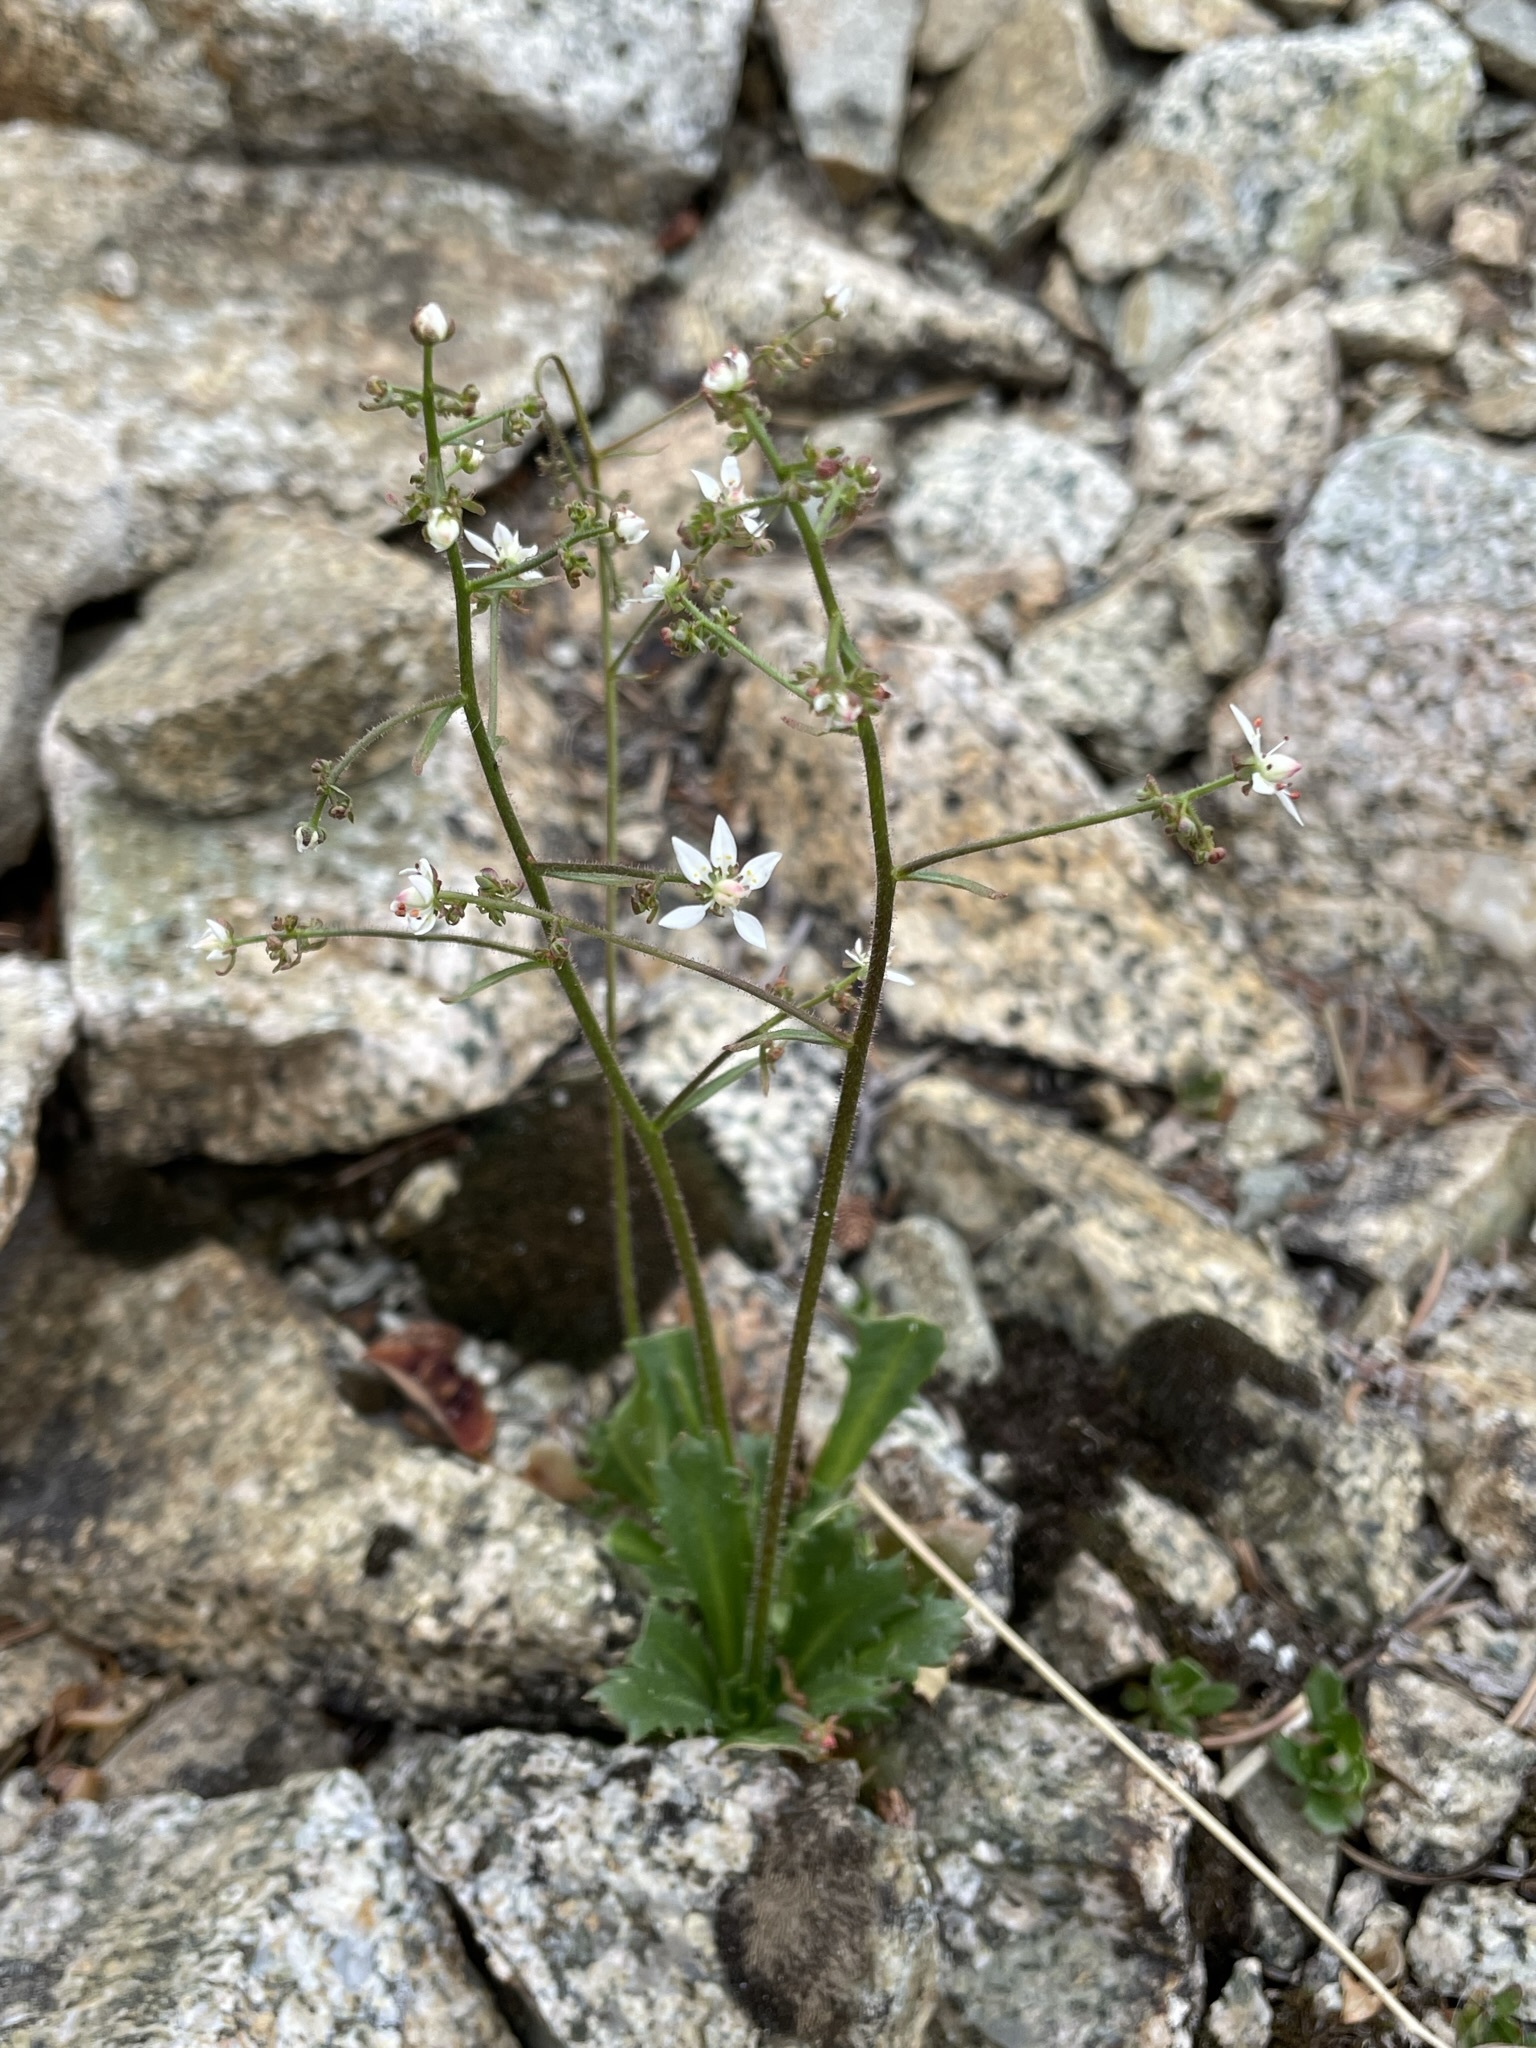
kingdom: Plantae
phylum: Tracheophyta
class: Magnoliopsida
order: Saxifragales
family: Saxifragaceae
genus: Micranthes
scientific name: Micranthes ferruginea
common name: Rusty saxifrage
